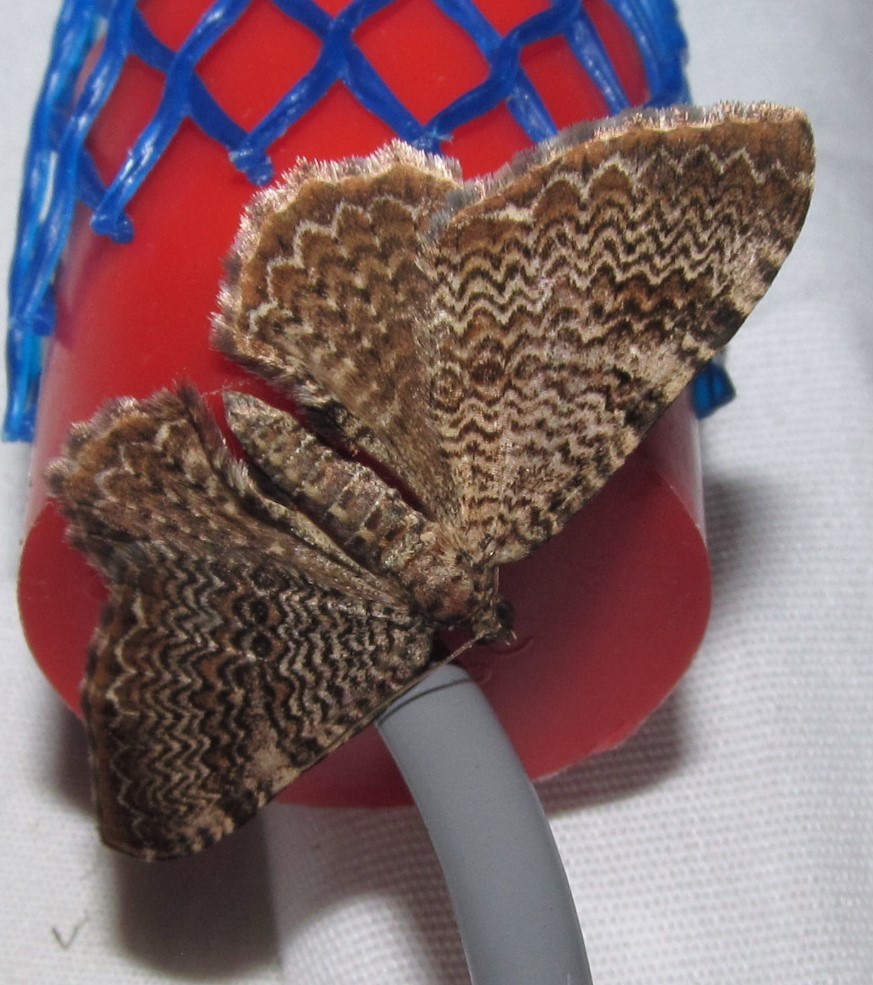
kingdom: Animalia
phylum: Arthropoda
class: Insecta
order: Lepidoptera
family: Geometridae
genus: Rheumaptera
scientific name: Rheumaptera prunivorata
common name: Cherry scallop shell moth
